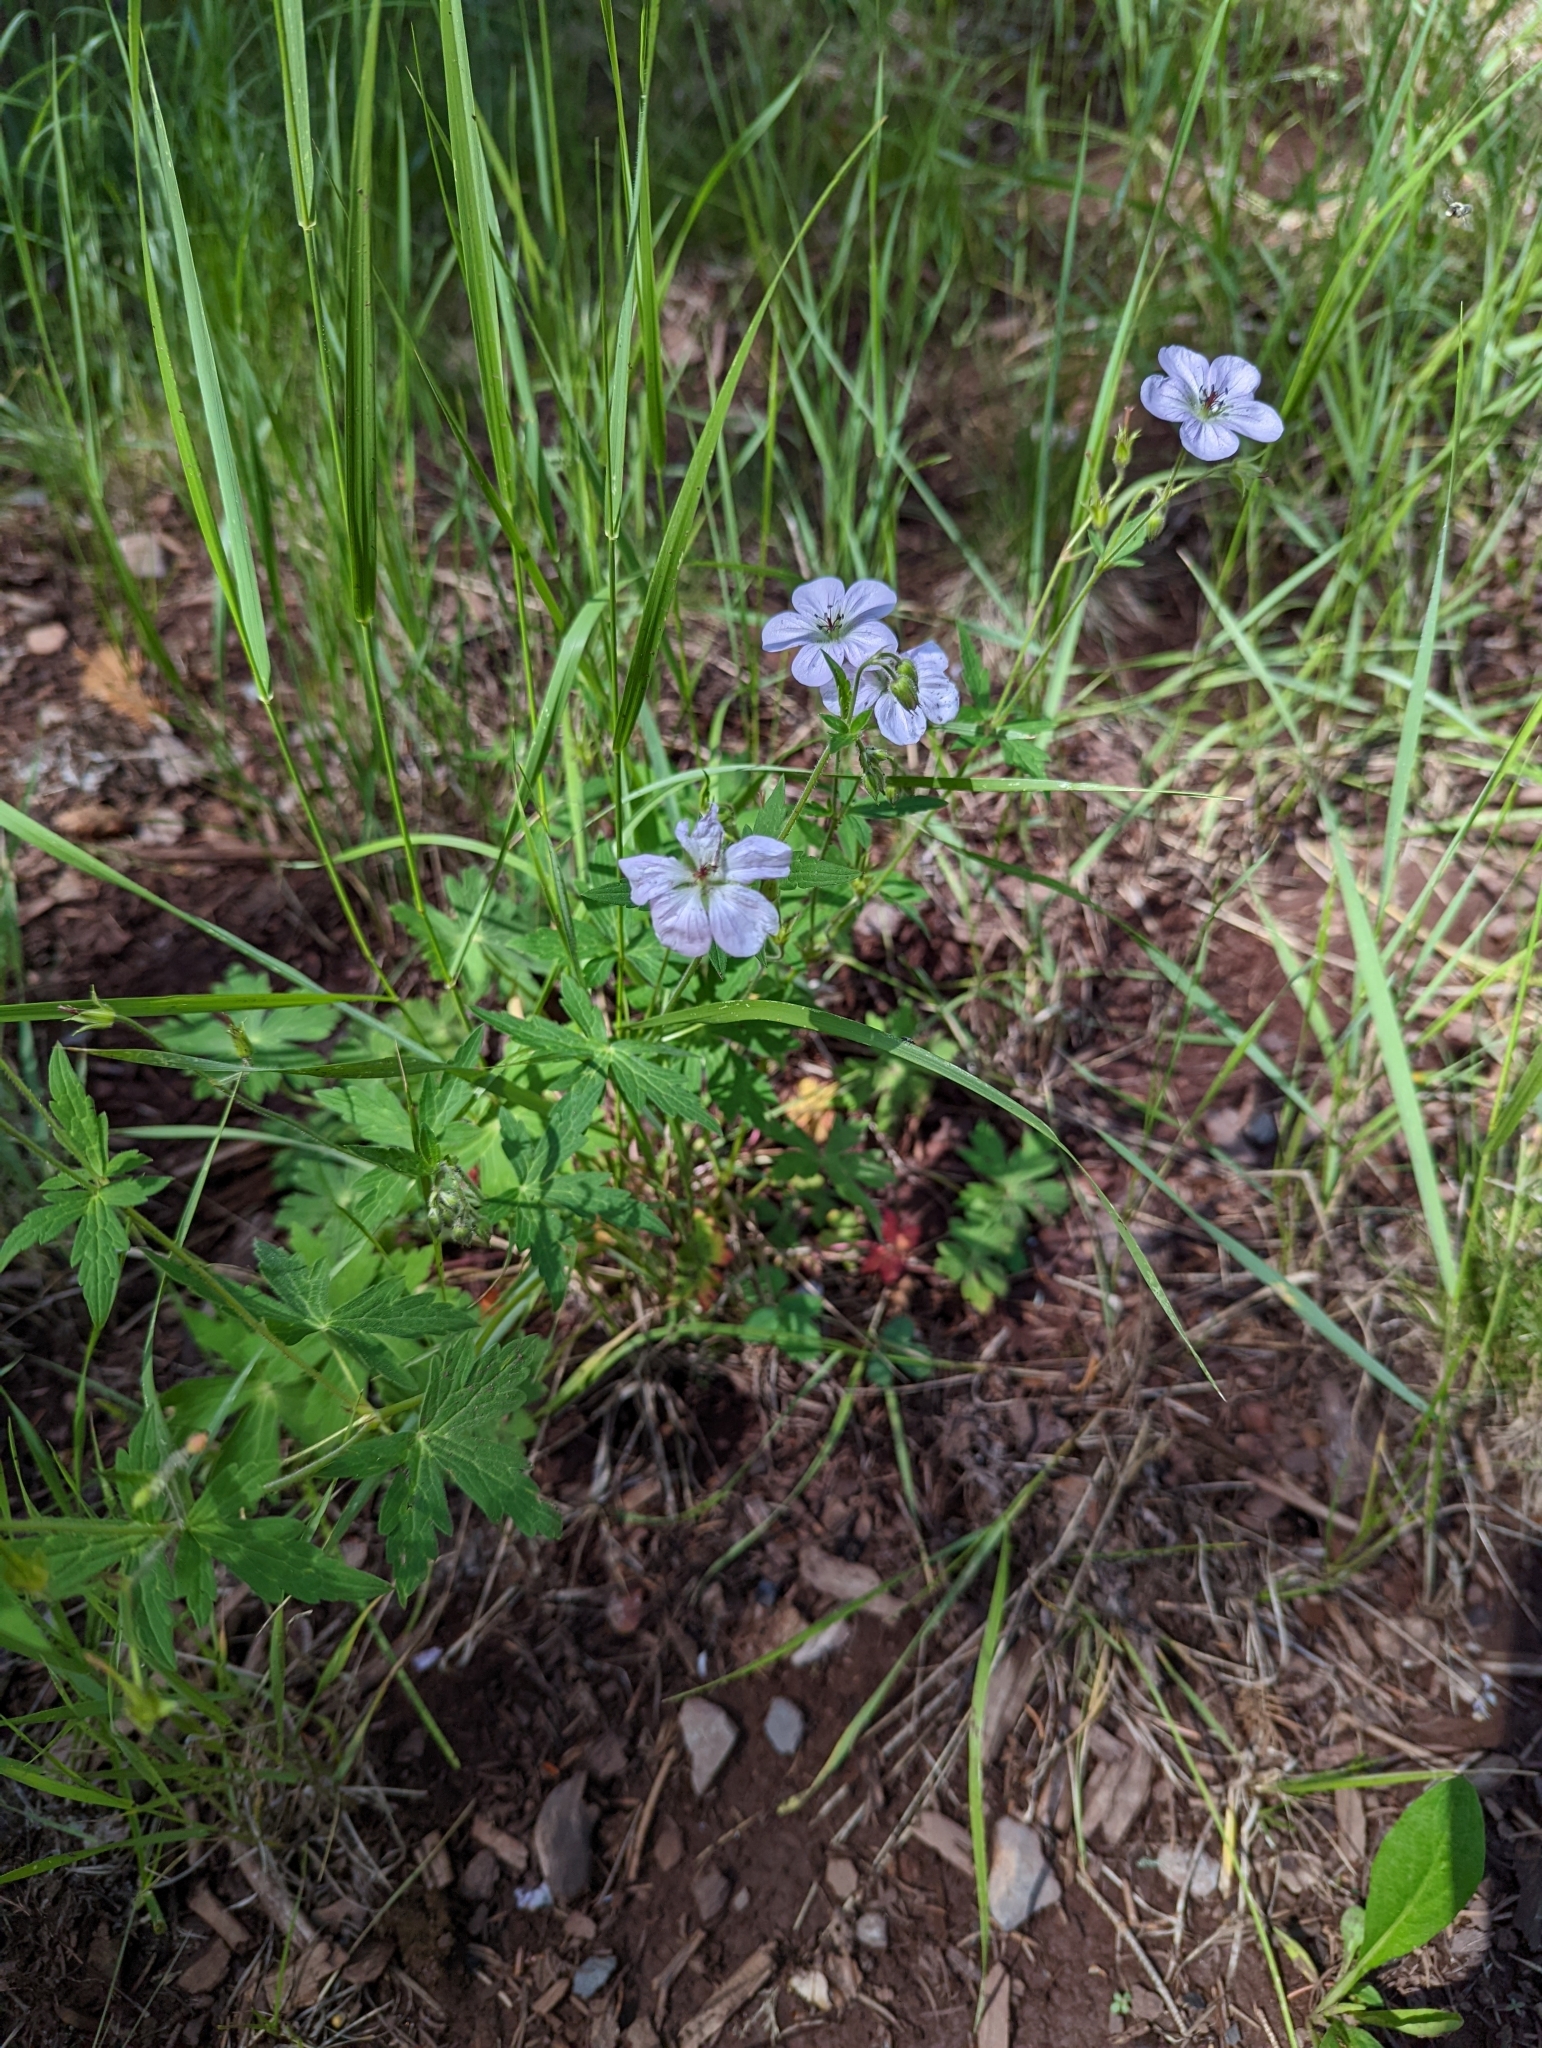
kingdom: Plantae
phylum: Tracheophyta
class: Magnoliopsida
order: Geraniales
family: Geraniaceae
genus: Geranium
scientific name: Geranium richardsonii
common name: Richardson's crane's-bill
